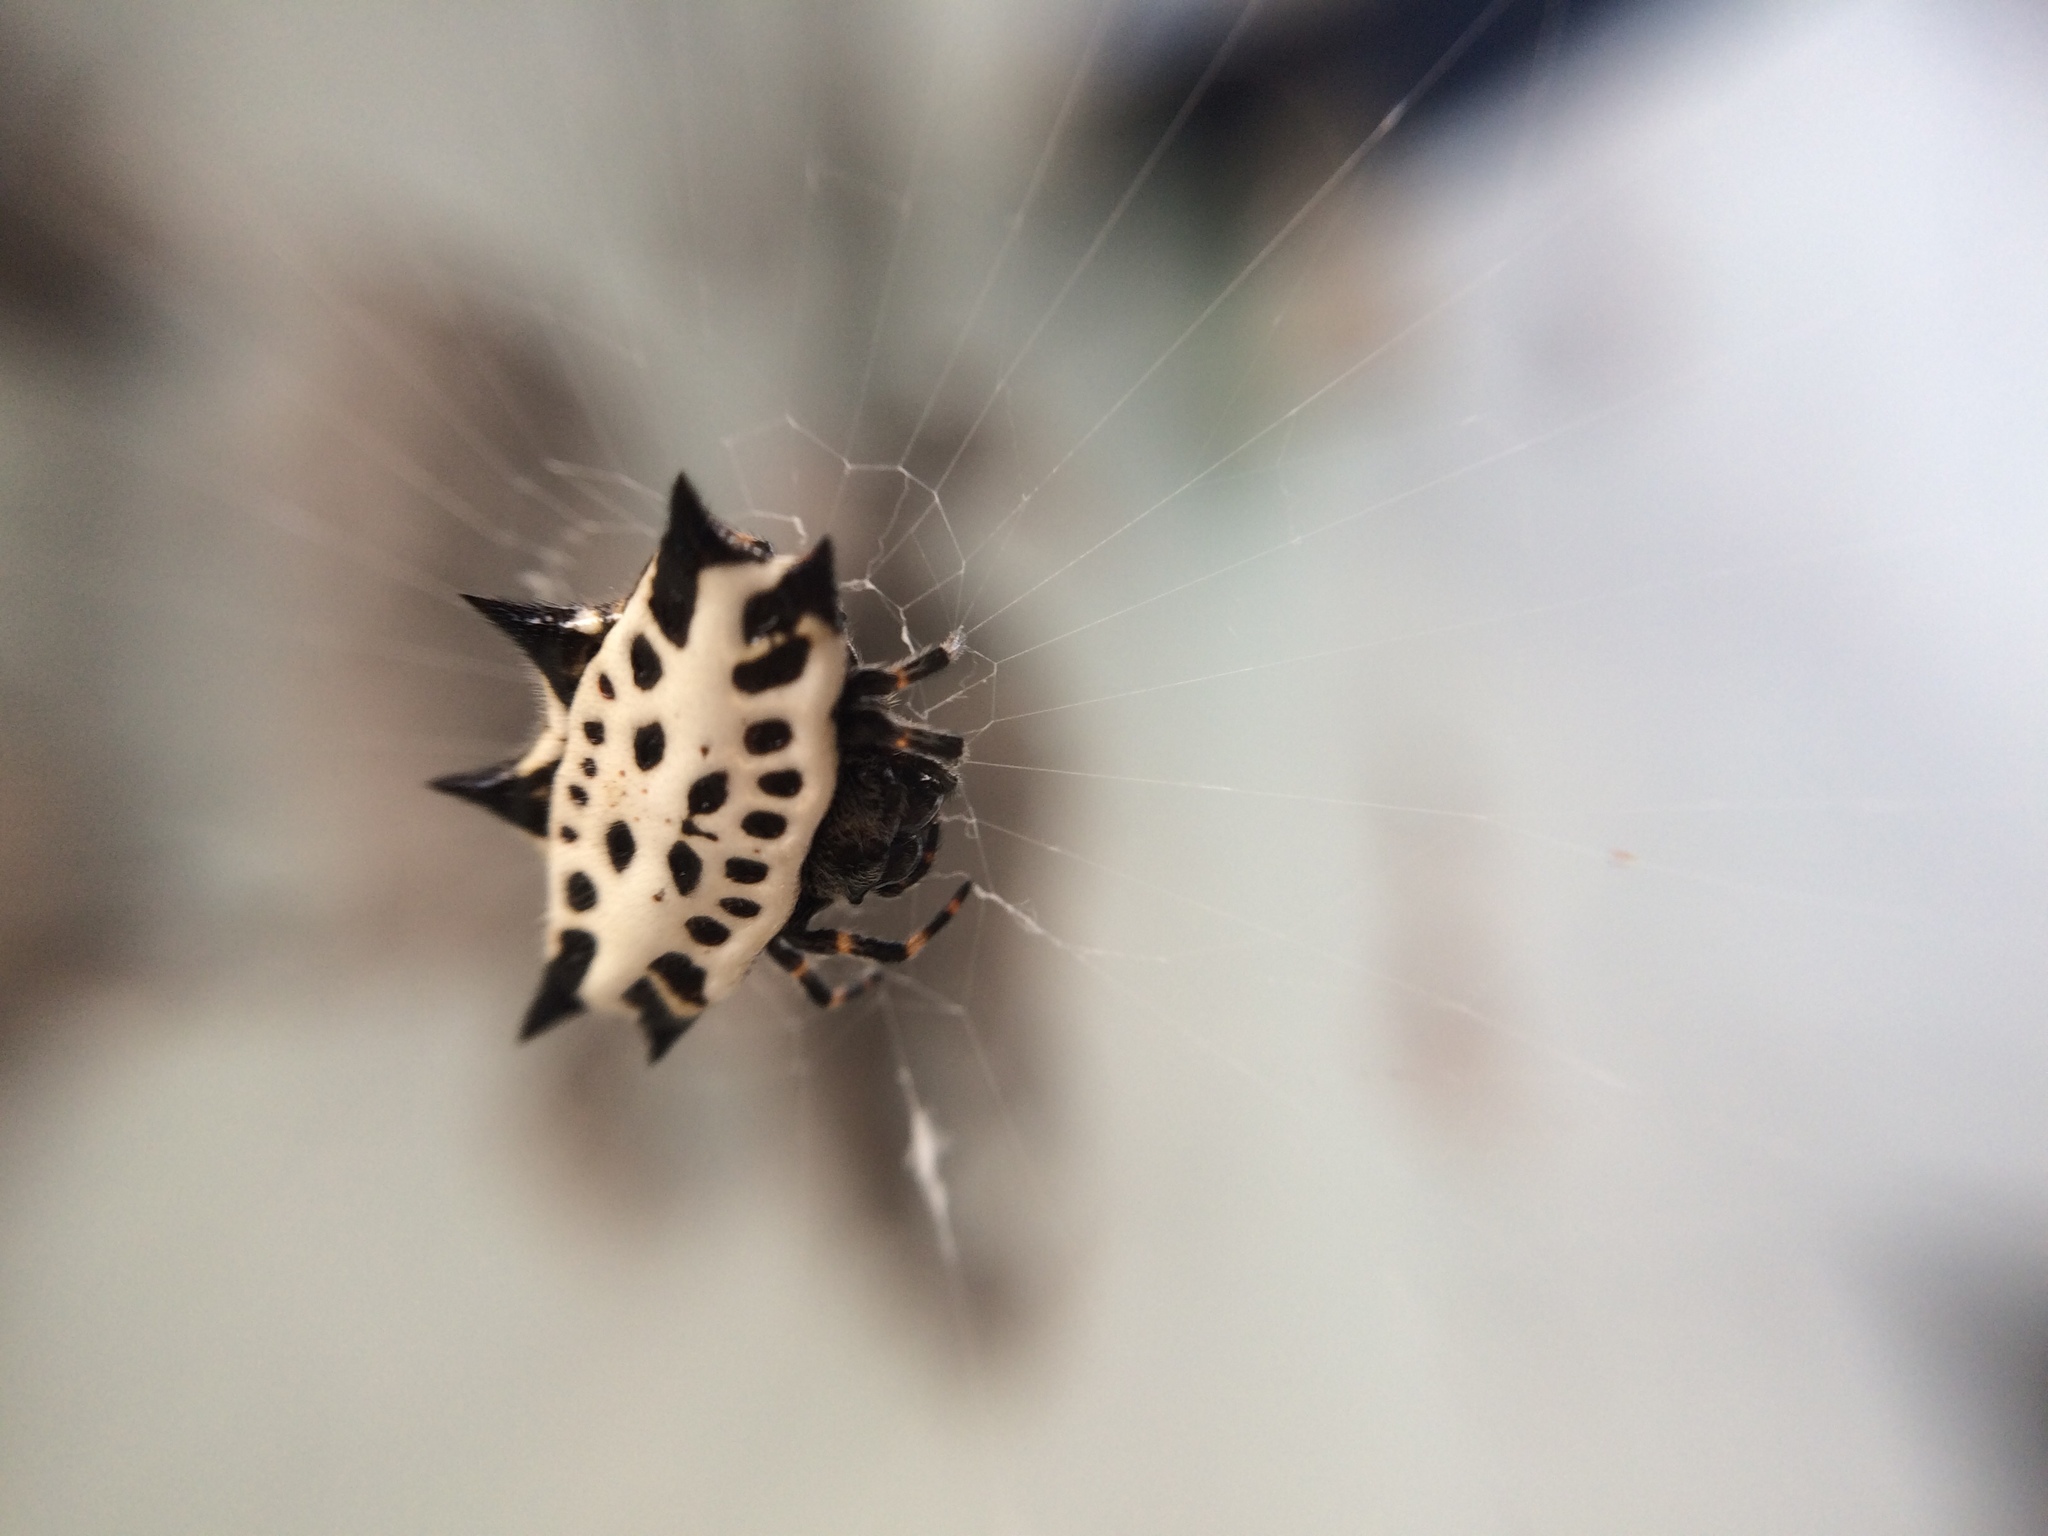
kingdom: Animalia
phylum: Arthropoda
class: Arachnida
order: Araneae
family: Araneidae
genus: Gasteracantha
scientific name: Gasteracantha cancriformis
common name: Orb weavers
